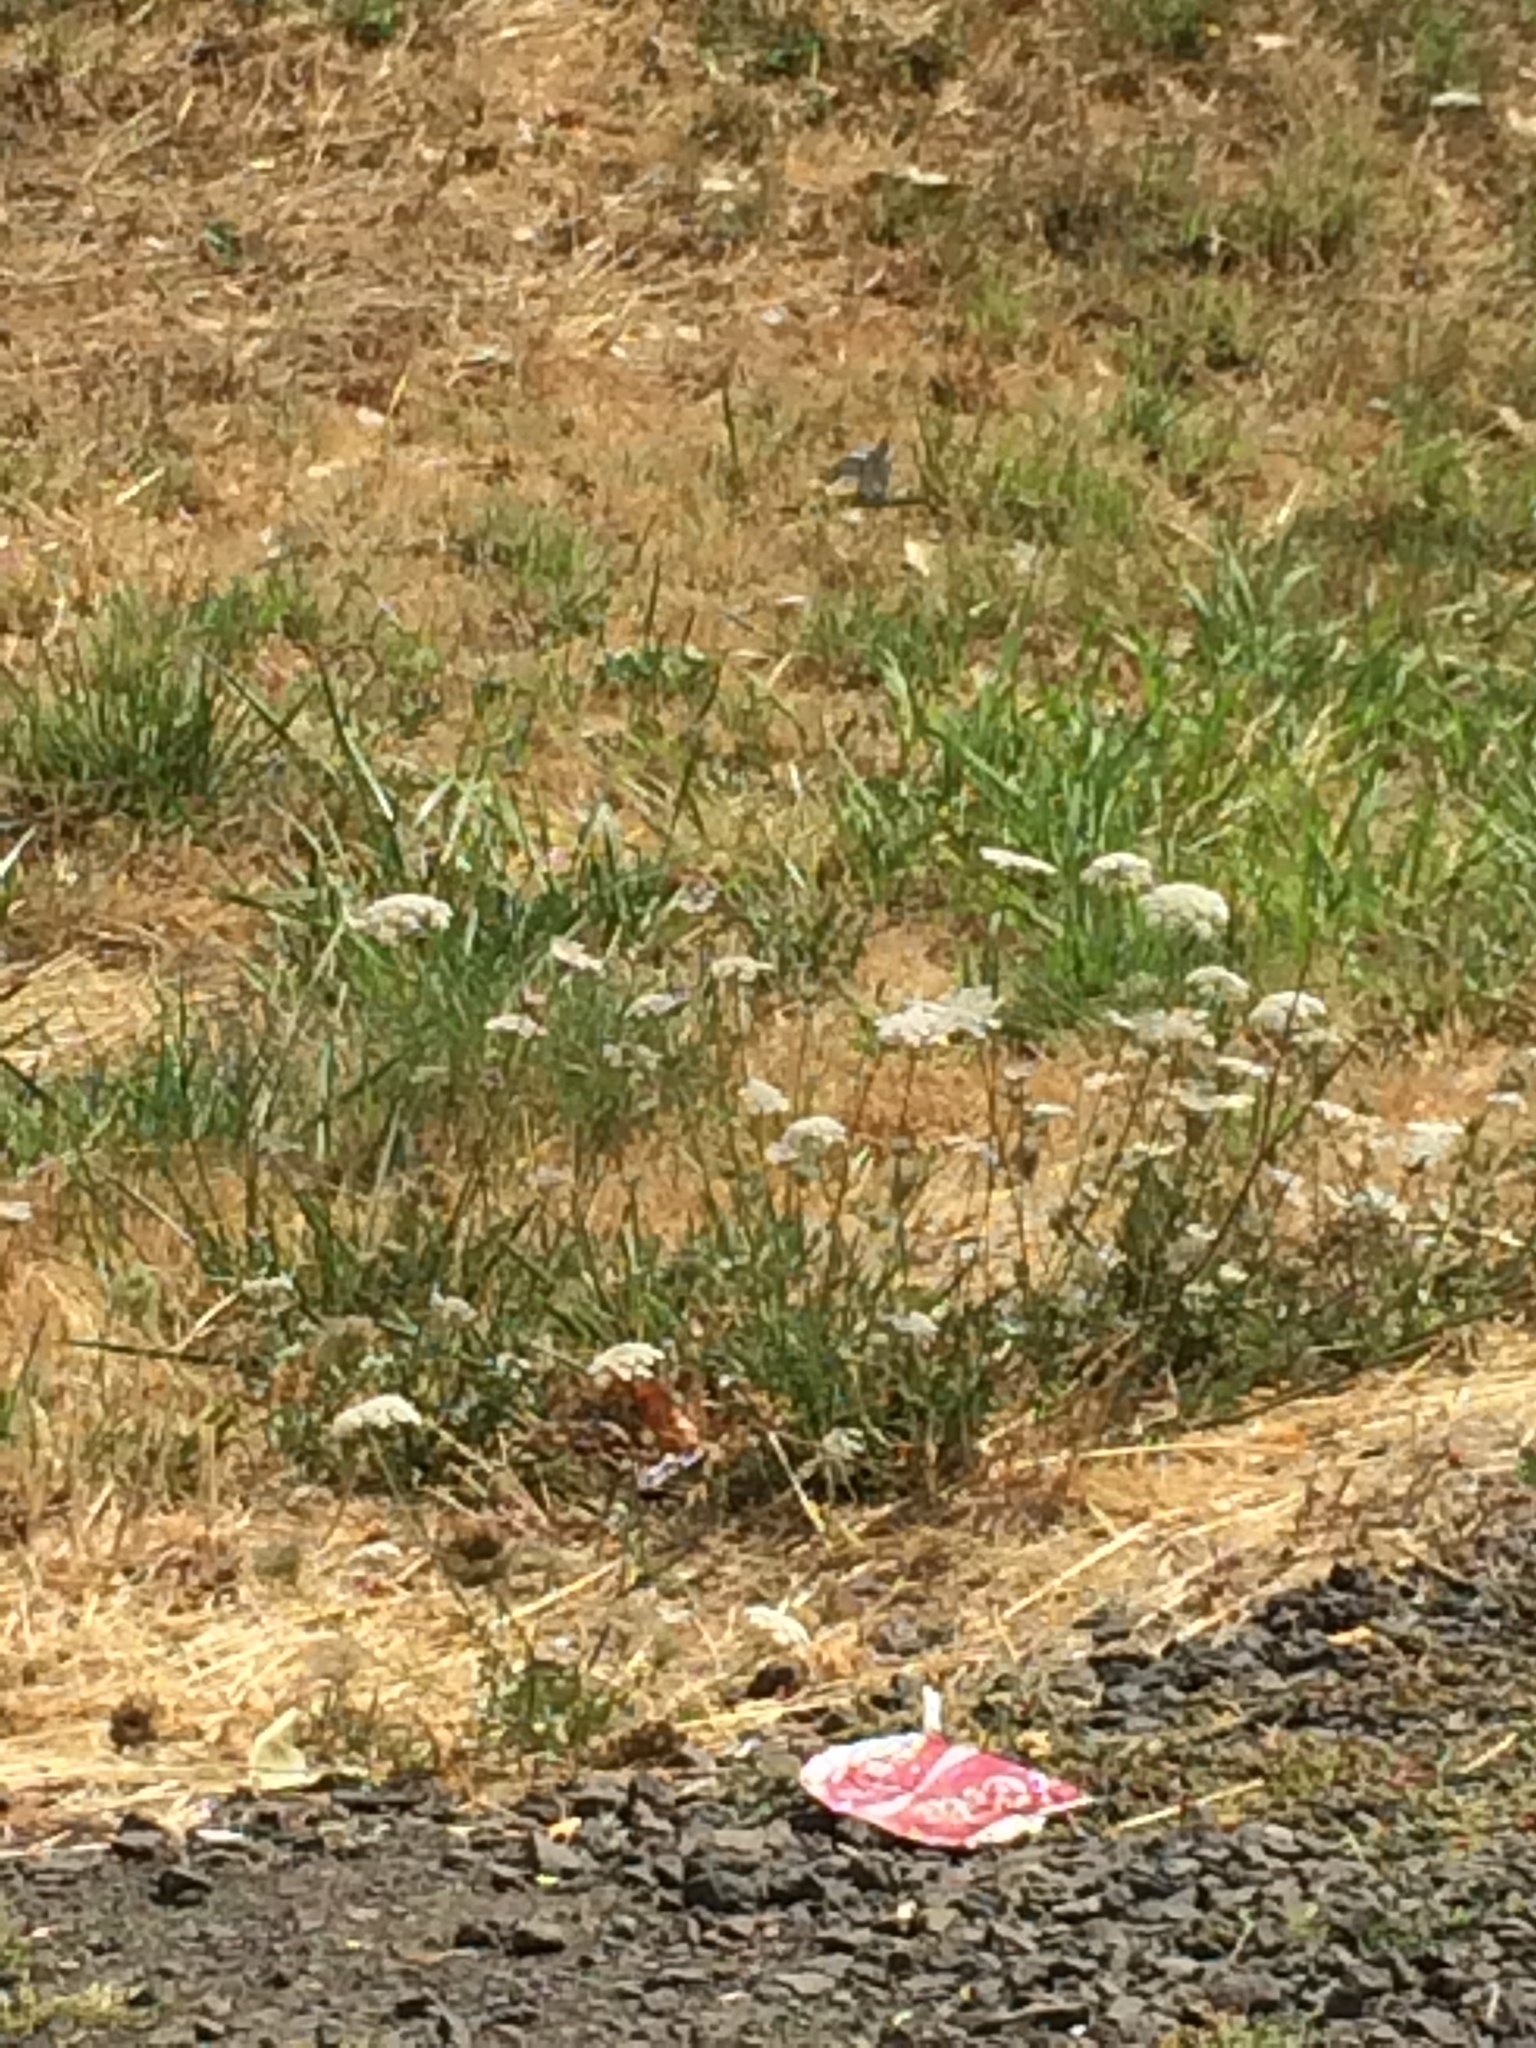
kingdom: Plantae
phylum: Tracheophyta
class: Magnoliopsida
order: Apiales
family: Apiaceae
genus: Daucus
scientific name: Daucus carota
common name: Wild carrot
